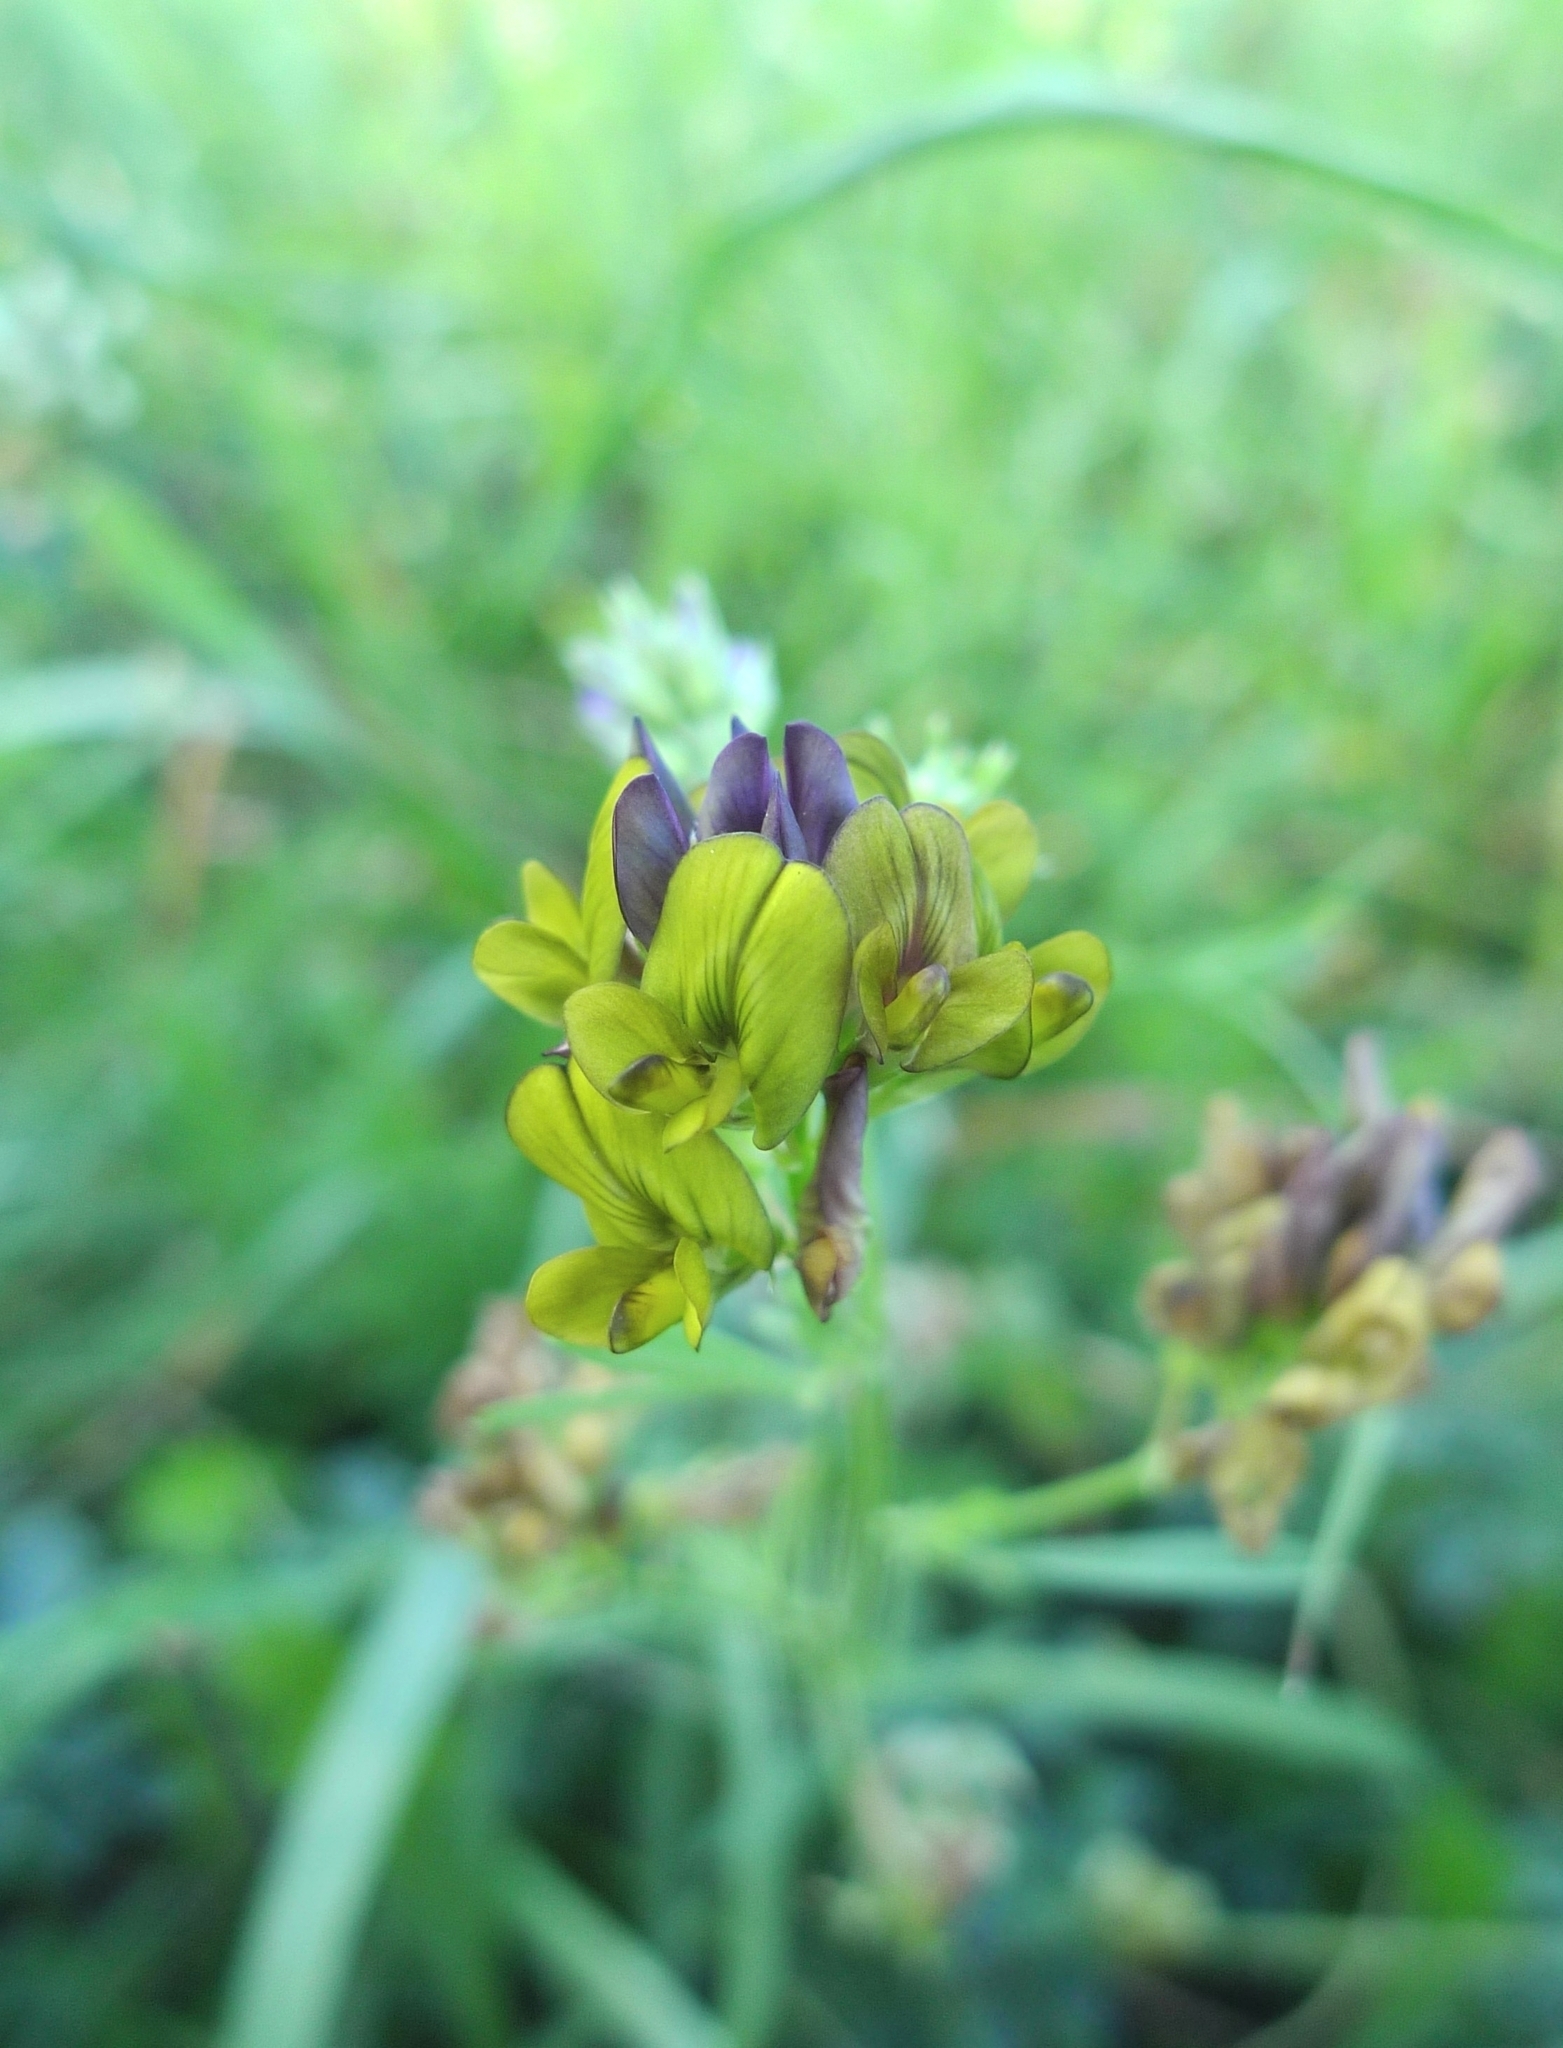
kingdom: Plantae
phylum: Tracheophyta
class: Magnoliopsida
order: Fabales
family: Fabaceae
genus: Medicago
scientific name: Medicago varia
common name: Sand lucerne
